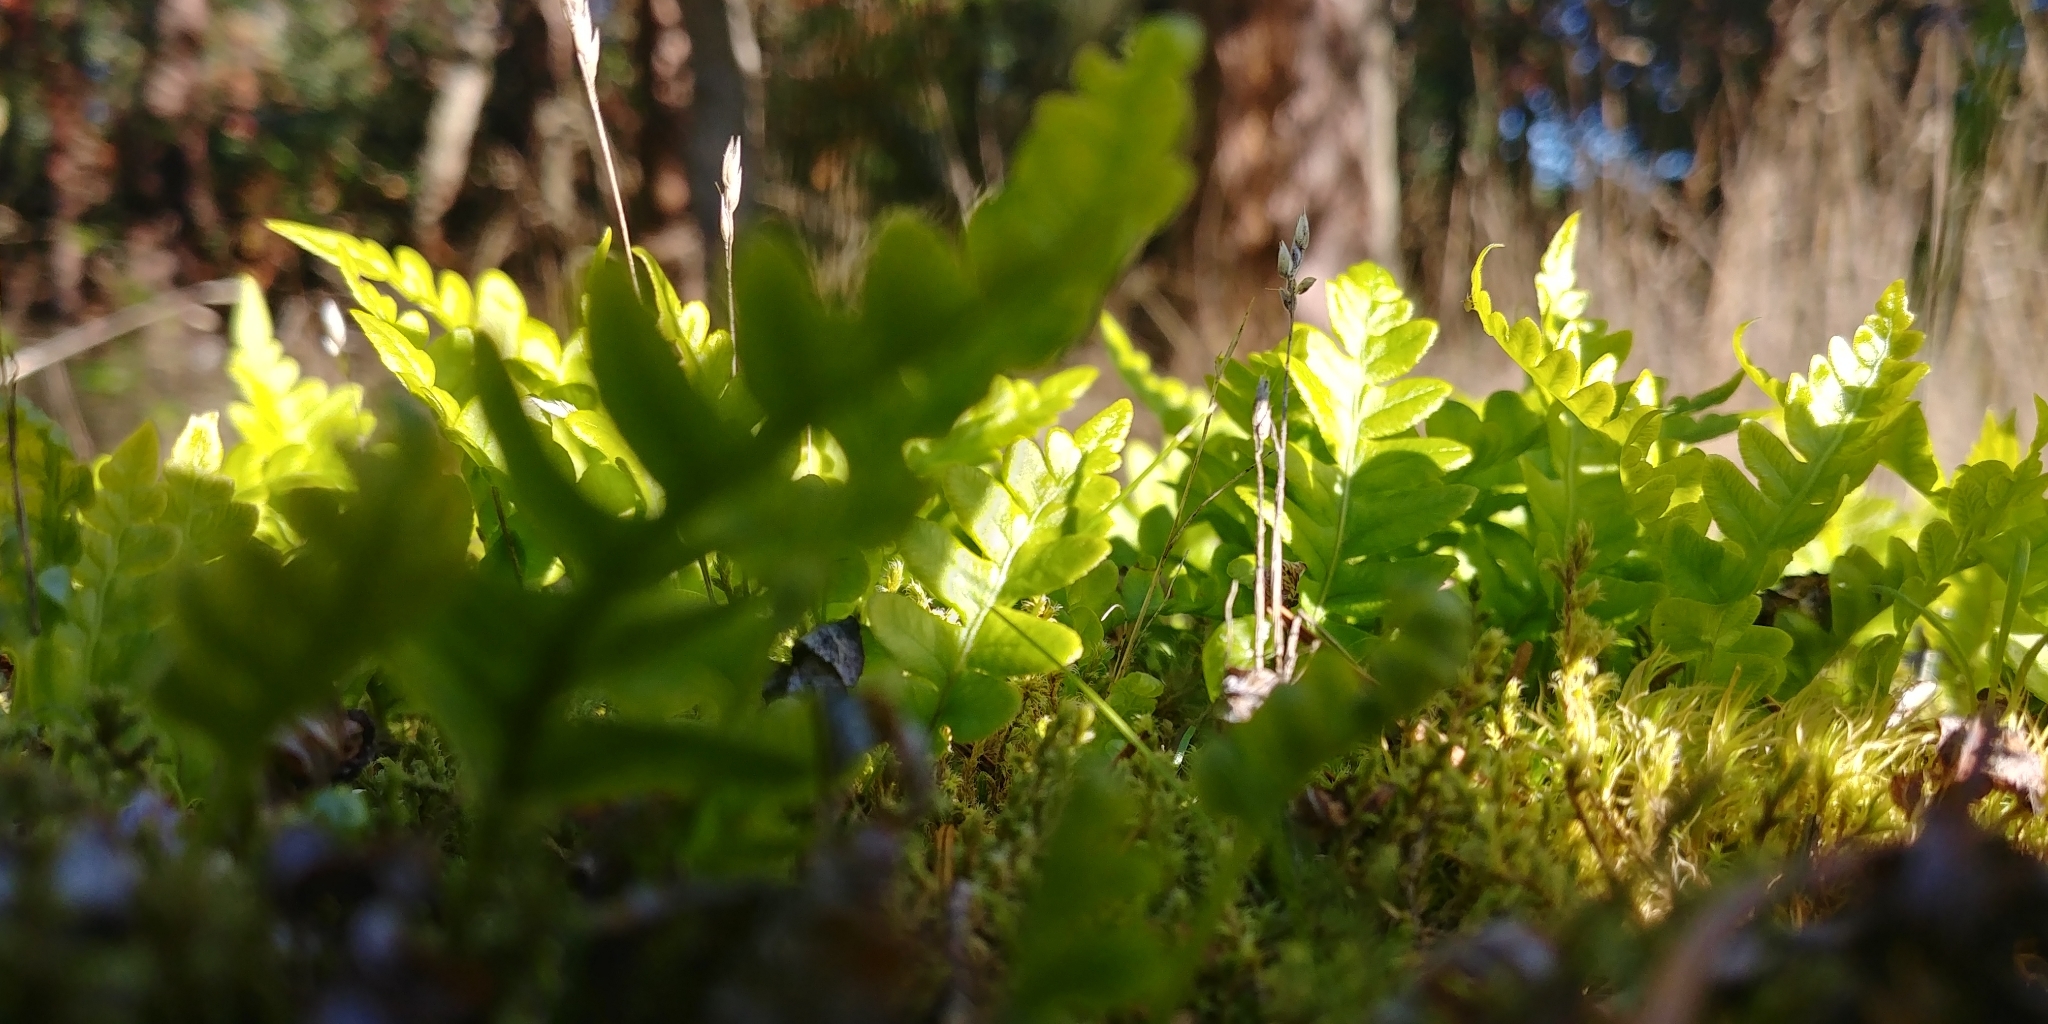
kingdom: Plantae
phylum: Tracheophyta
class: Polypodiopsida
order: Polypodiales
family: Polypodiaceae
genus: Polypodium
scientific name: Polypodium glycyrrhiza
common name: Licorice fern
